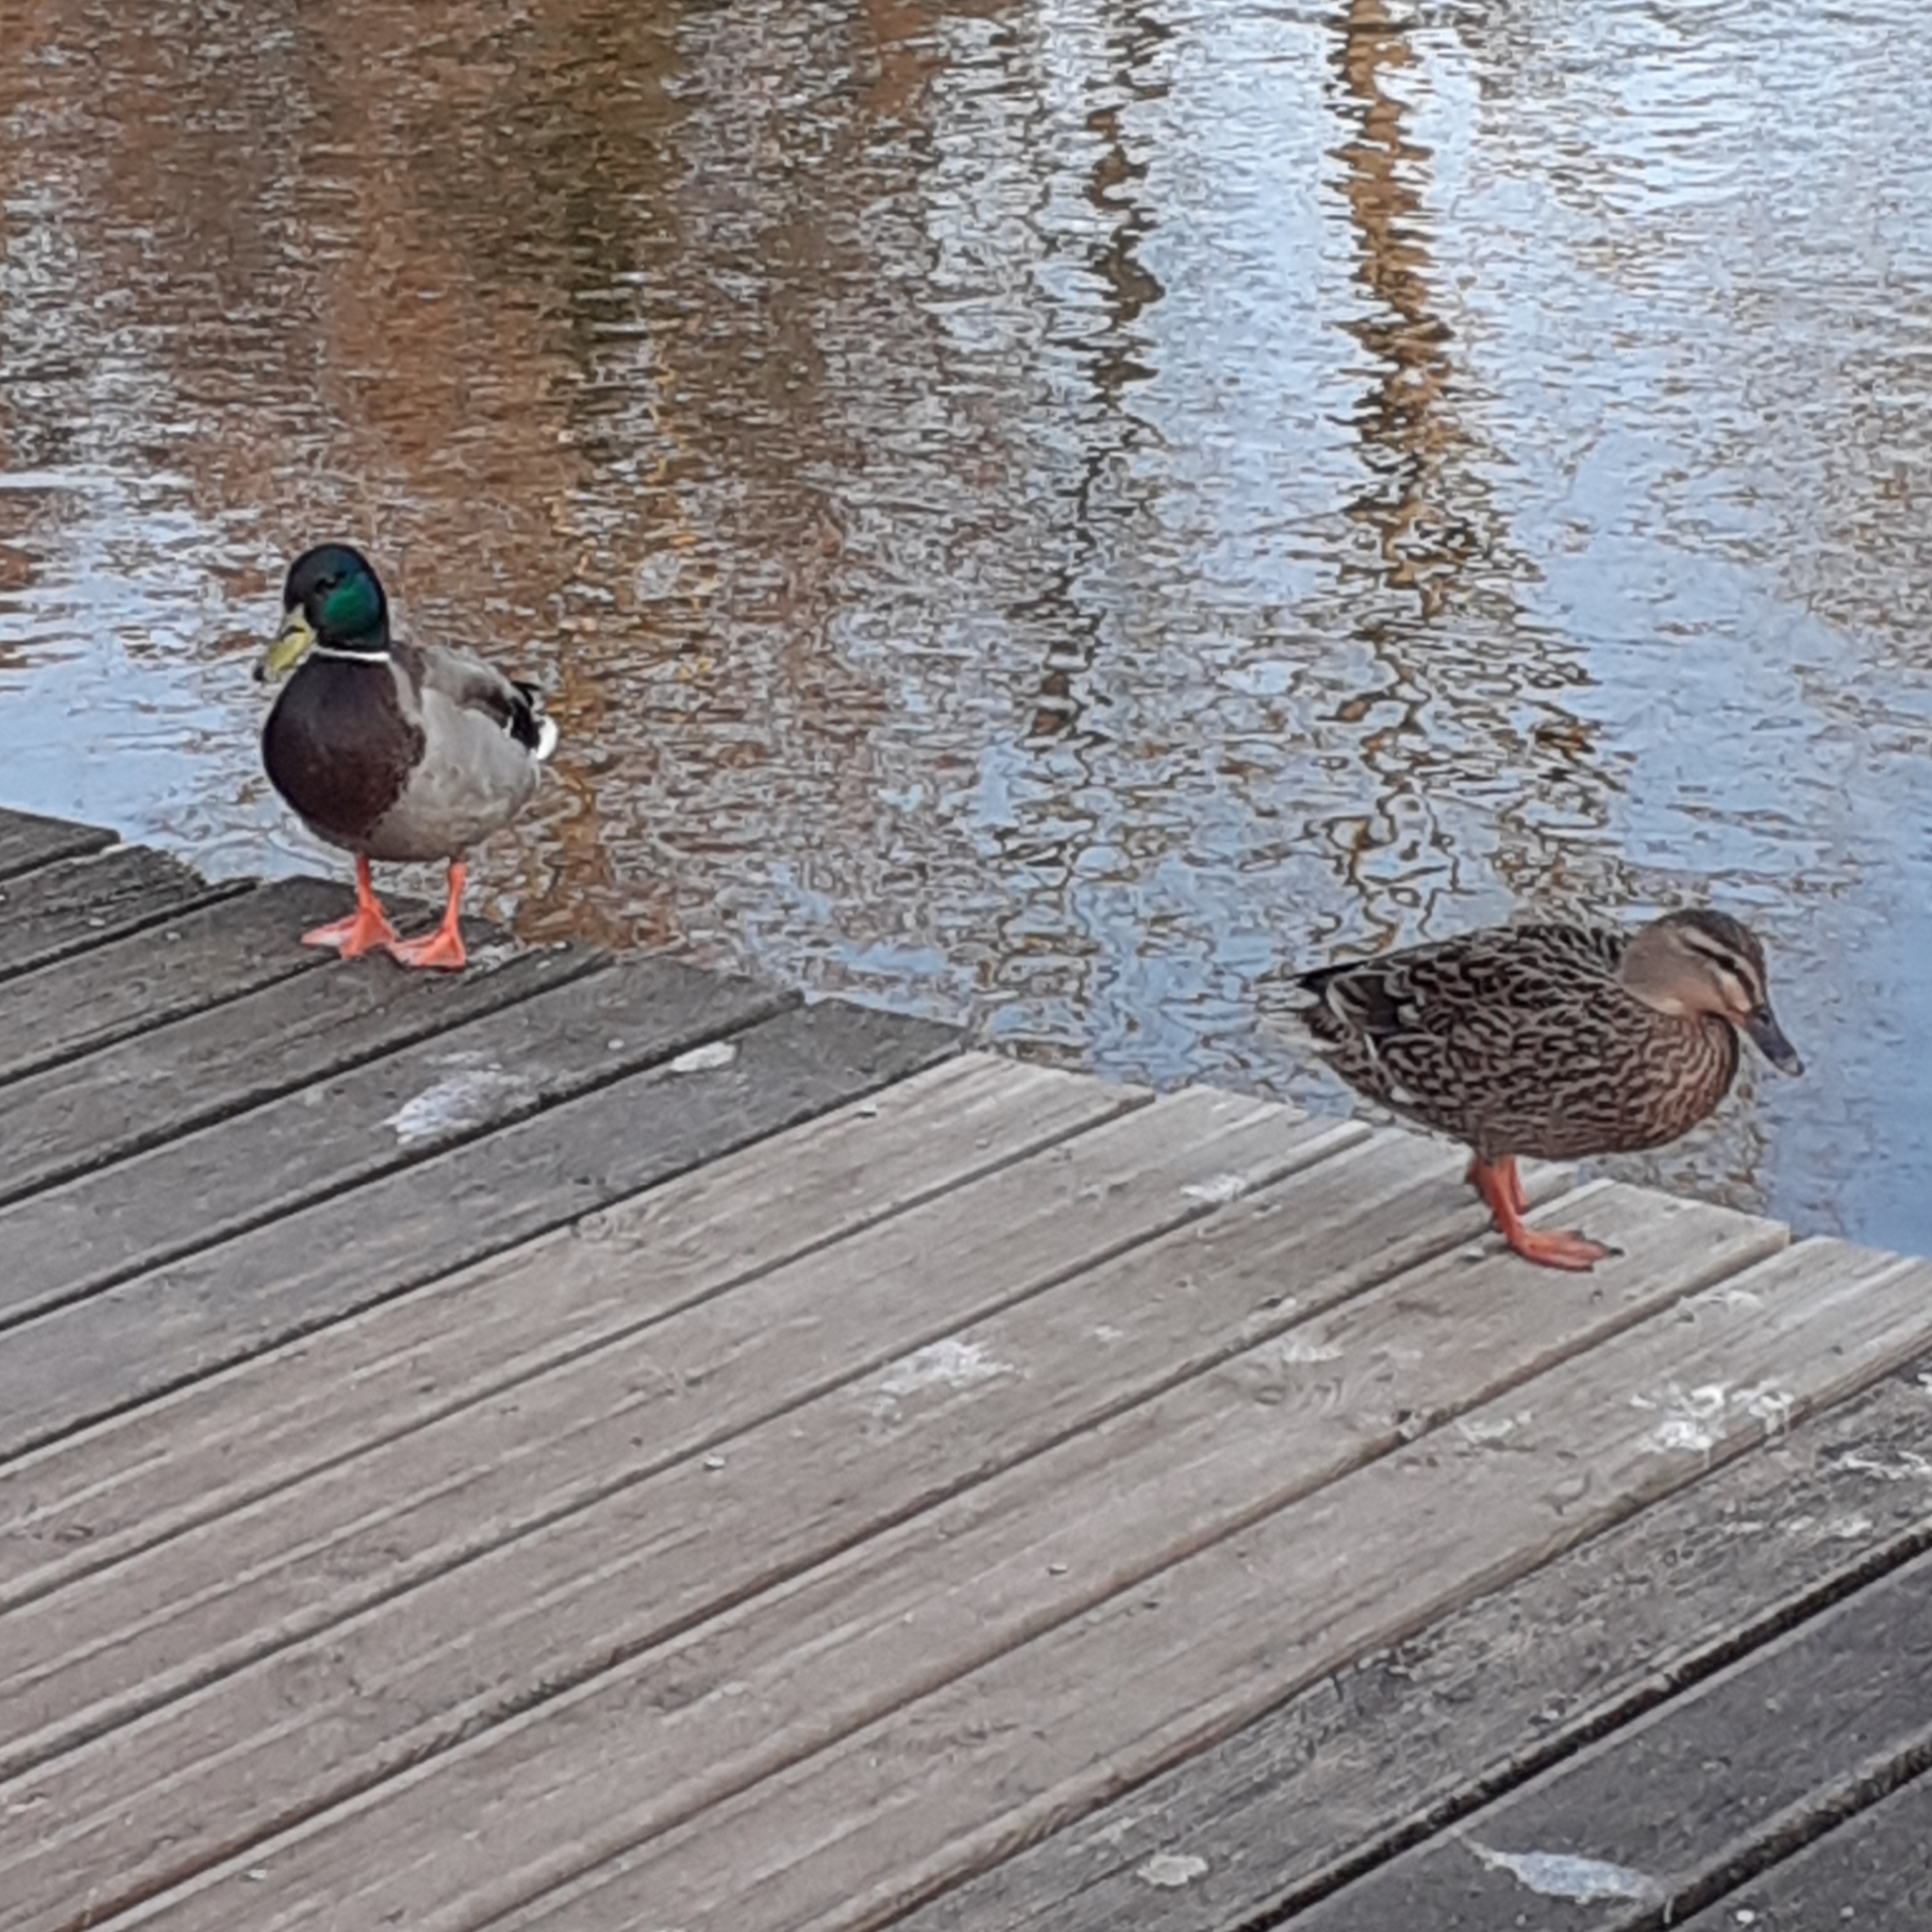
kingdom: Animalia
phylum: Chordata
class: Aves
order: Anseriformes
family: Anatidae
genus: Anas
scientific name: Anas platyrhynchos
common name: Mallard
